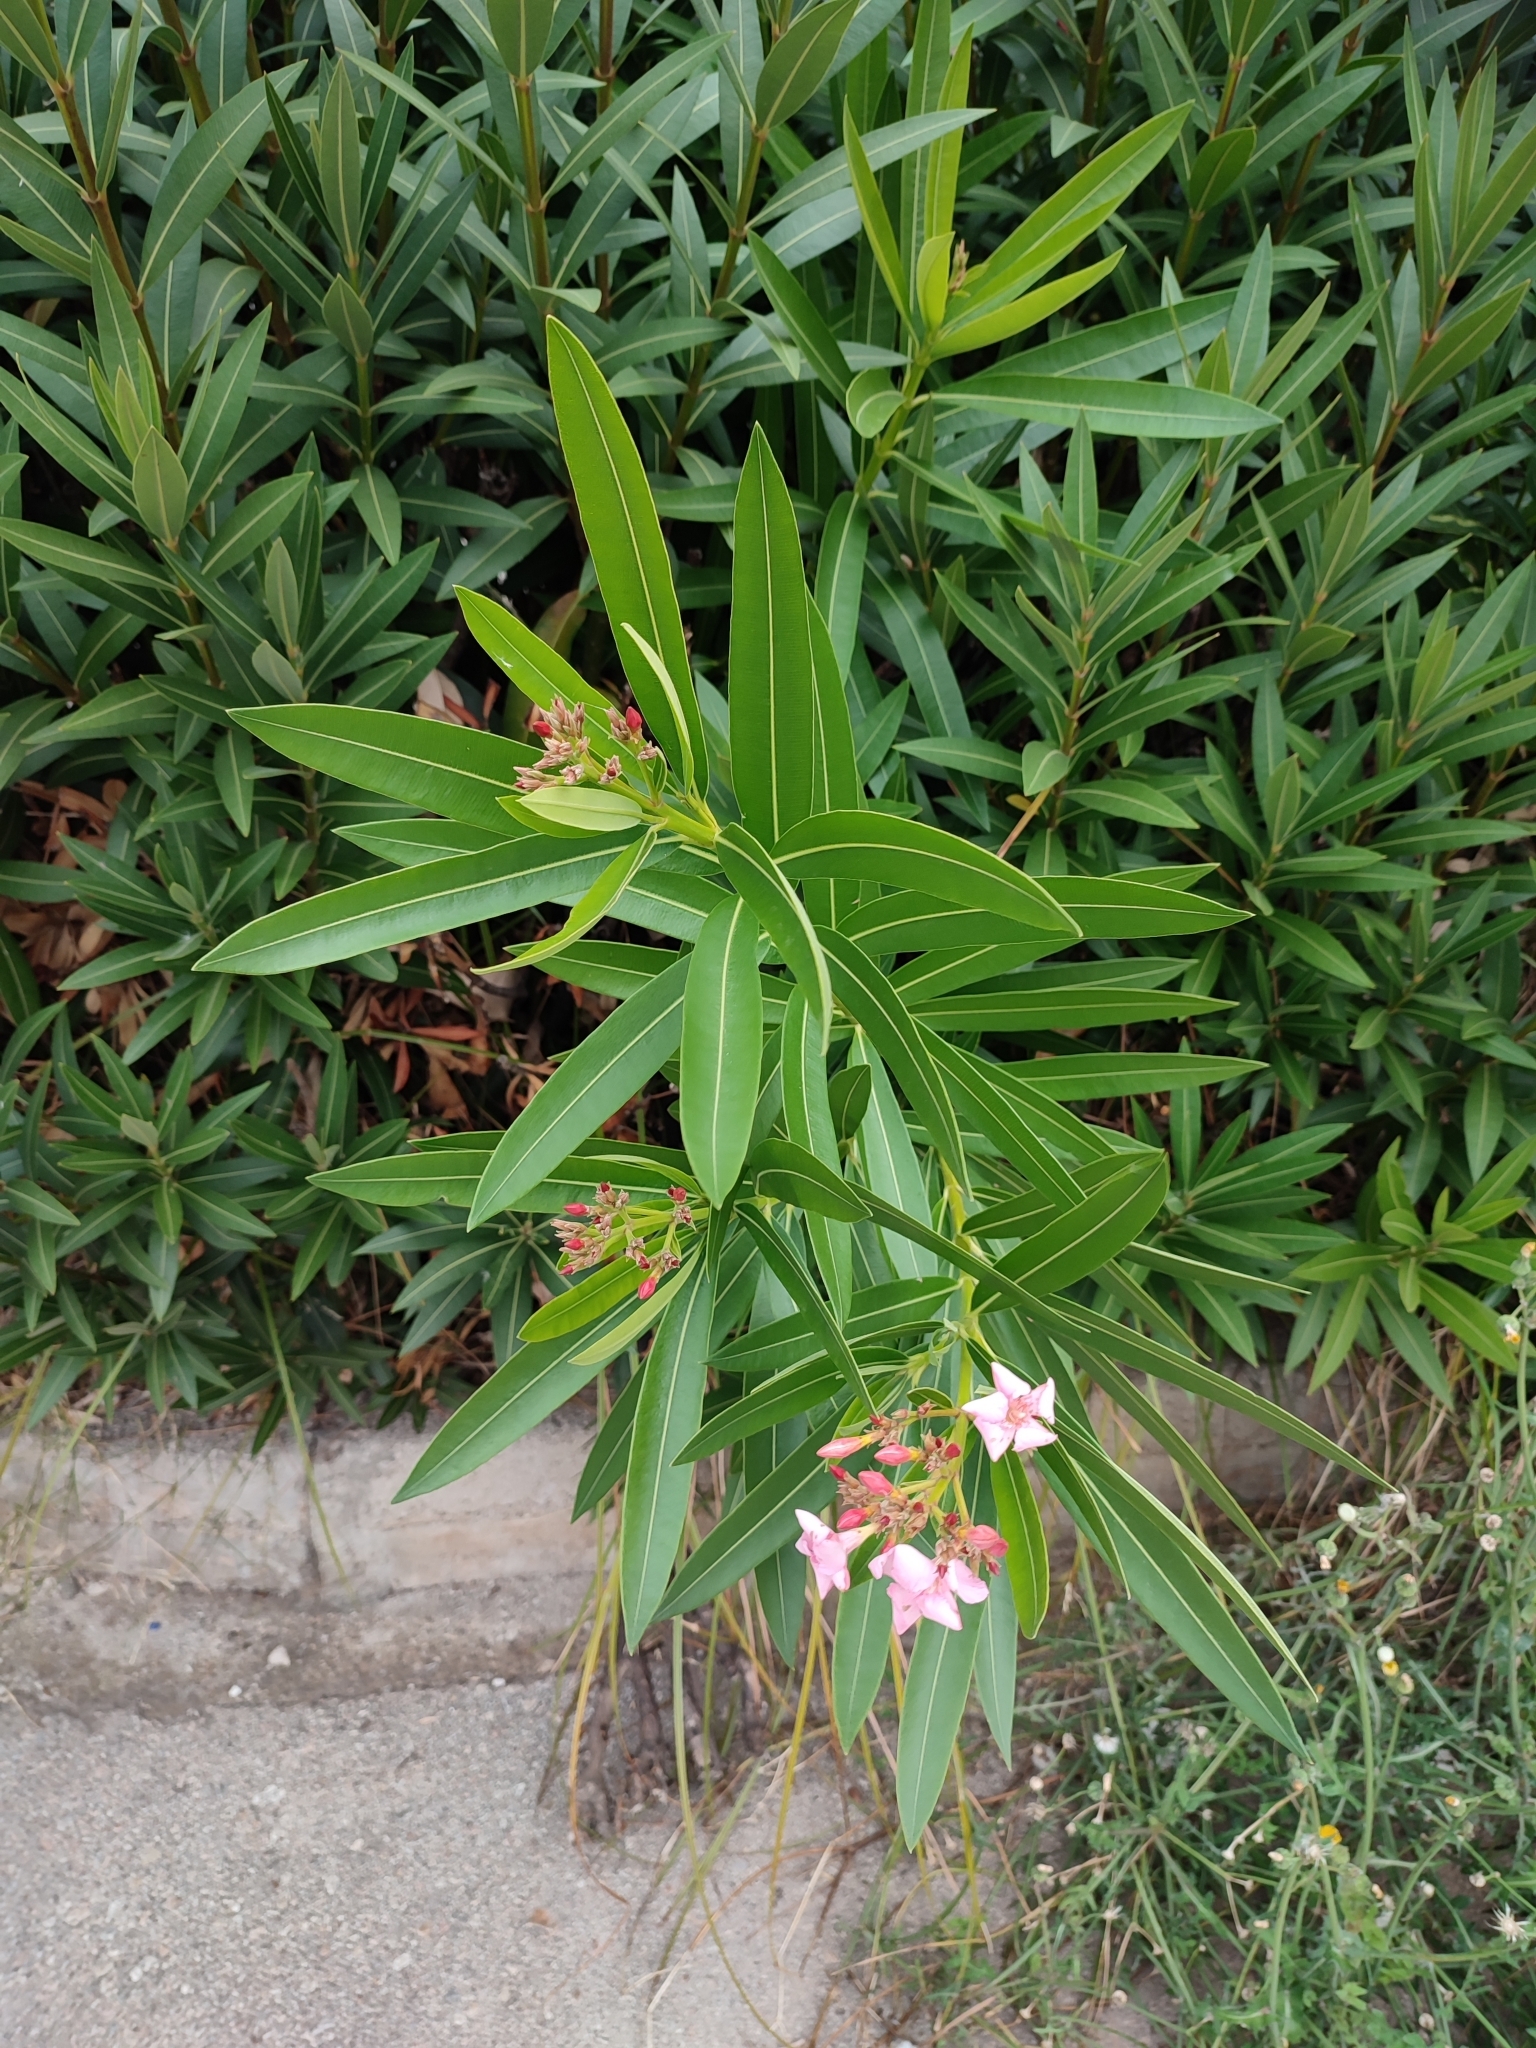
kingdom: Plantae
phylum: Tracheophyta
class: Magnoliopsida
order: Gentianales
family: Apocynaceae
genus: Nerium
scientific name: Nerium oleander
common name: Oleander
